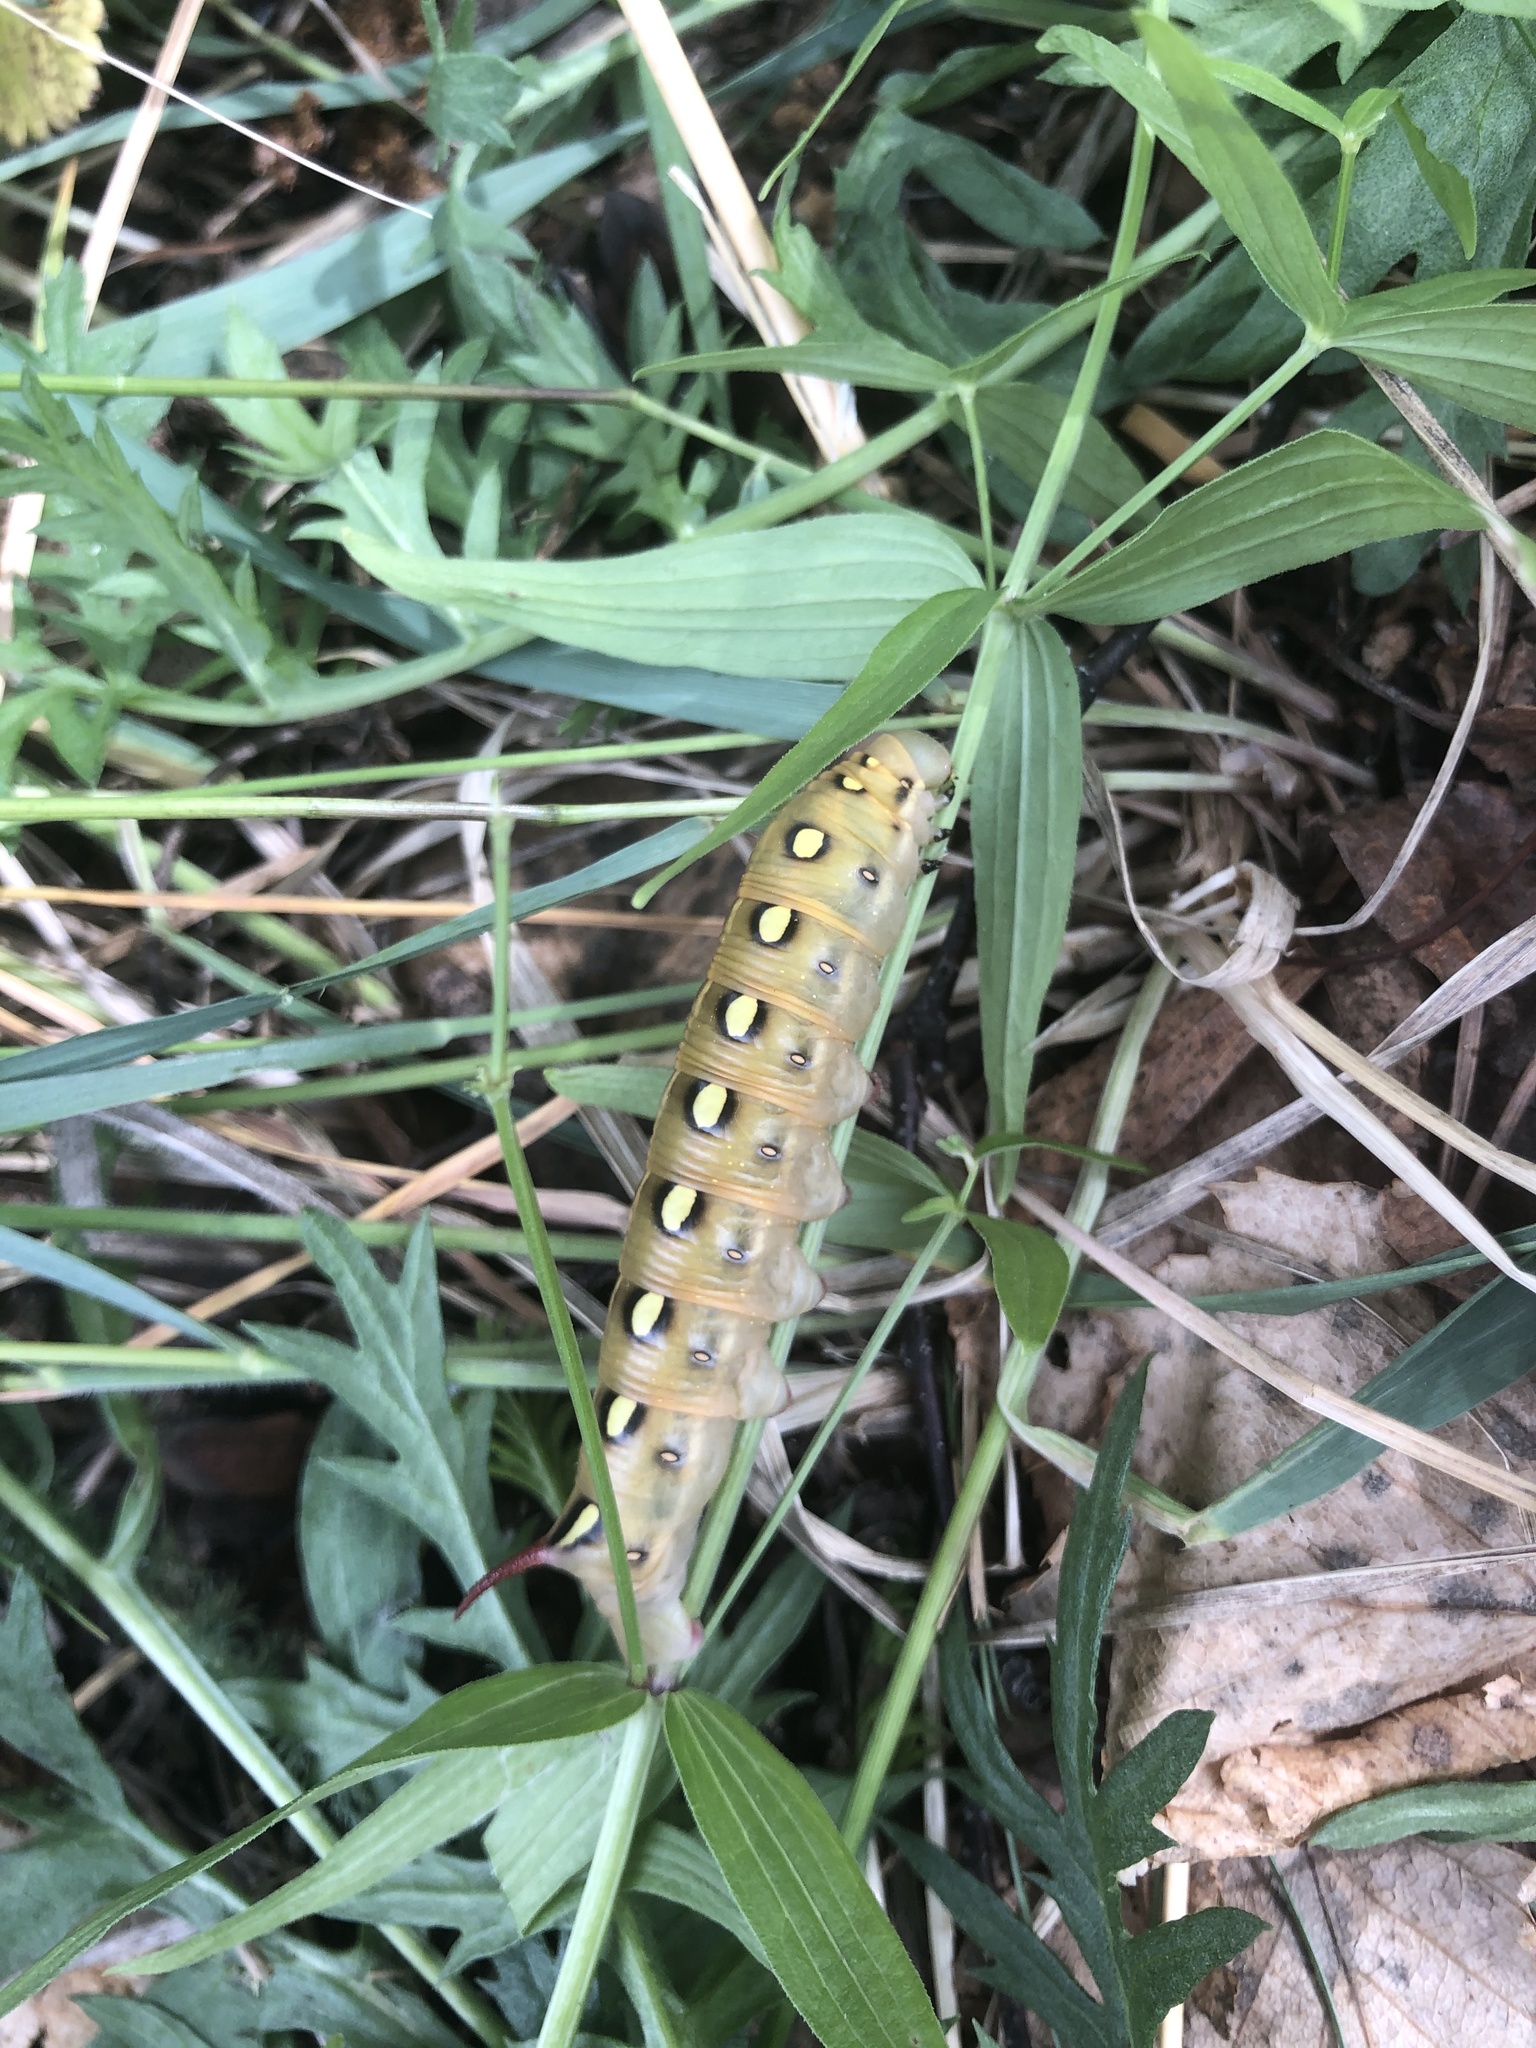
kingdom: Animalia
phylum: Arthropoda
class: Insecta
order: Lepidoptera
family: Sphingidae
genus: Hyles
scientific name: Hyles gallii
